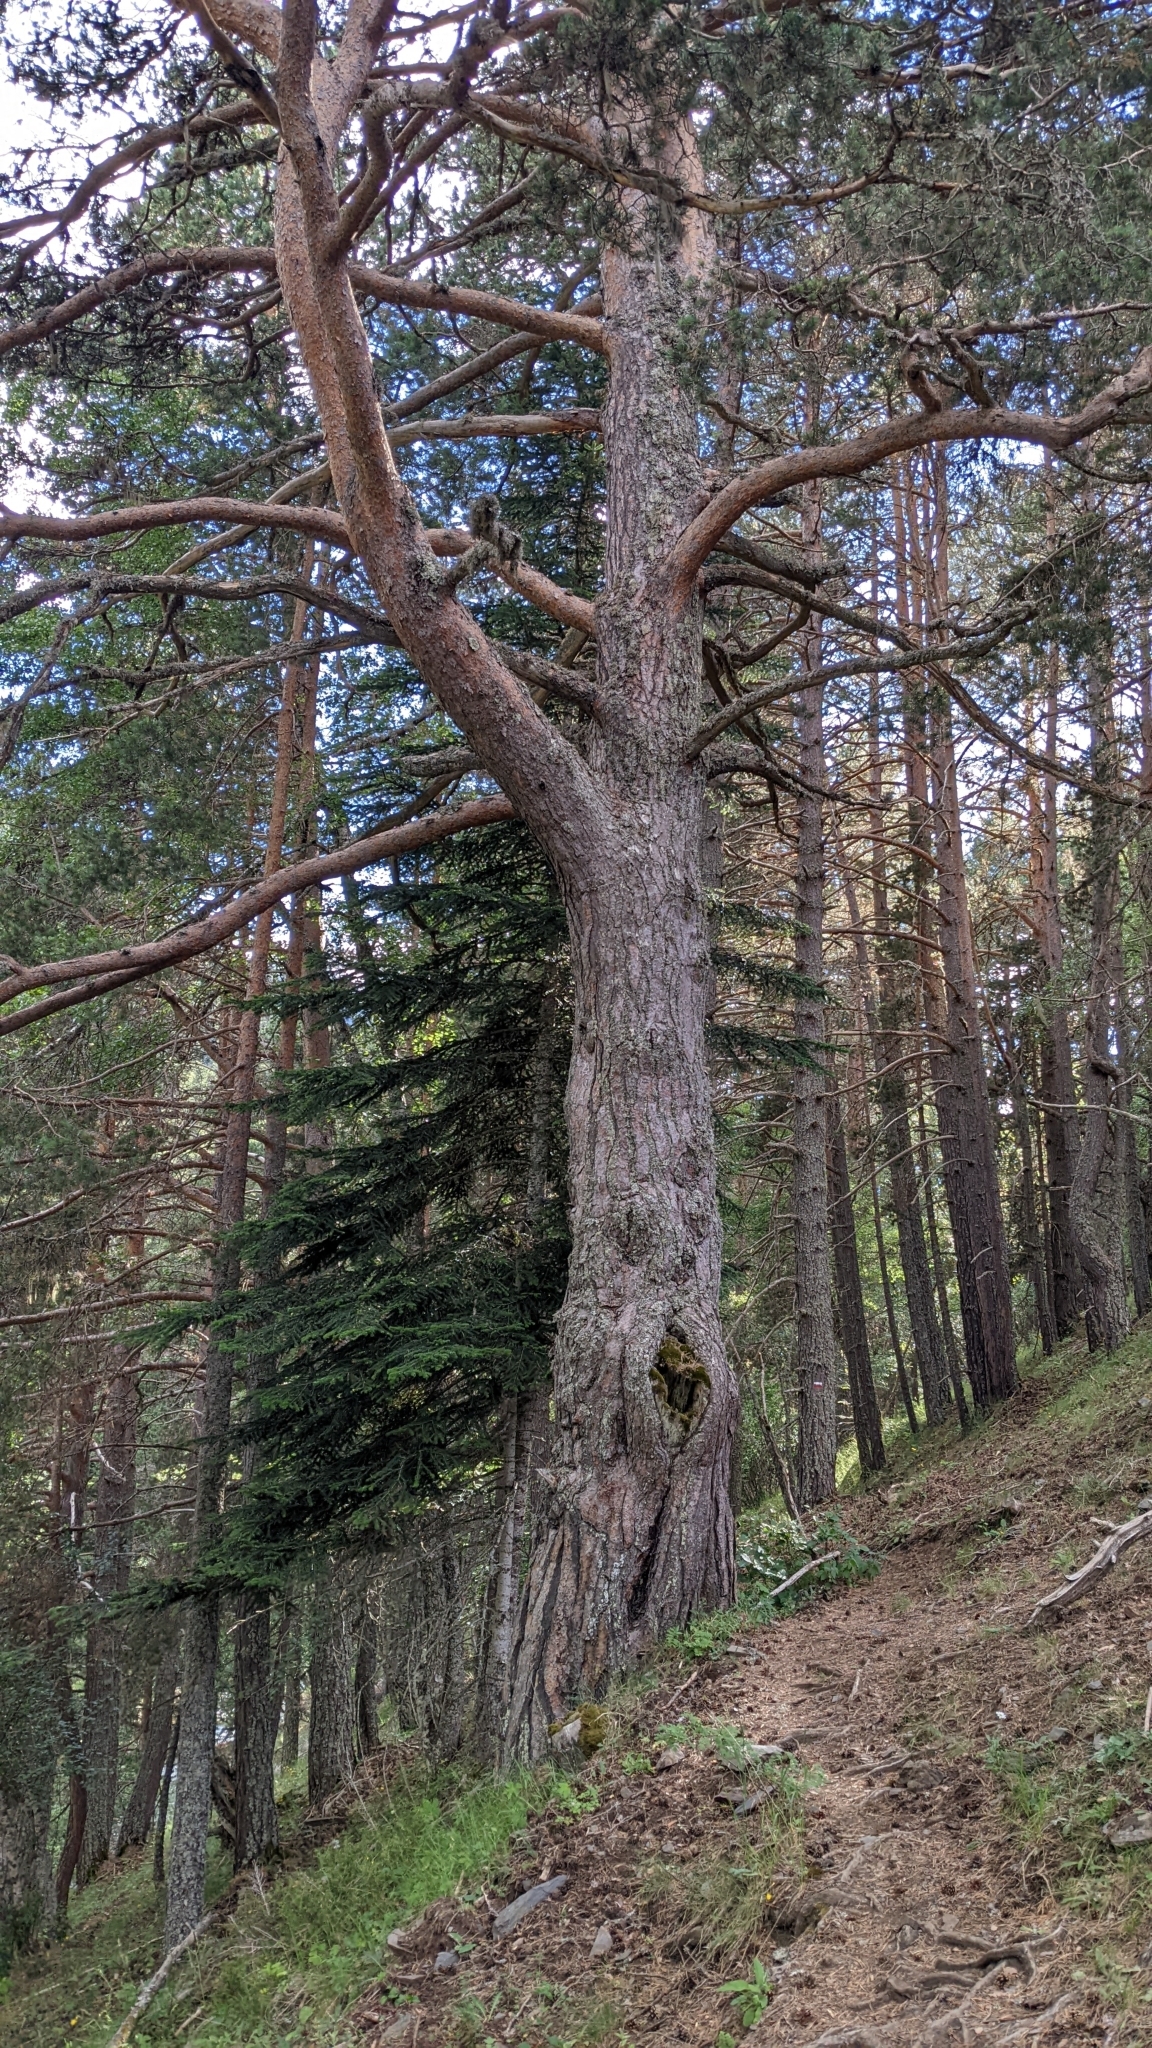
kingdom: Plantae
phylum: Tracheophyta
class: Pinopsida
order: Pinales
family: Pinaceae
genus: Pinus
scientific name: Pinus sylvestris
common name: Scots pine
